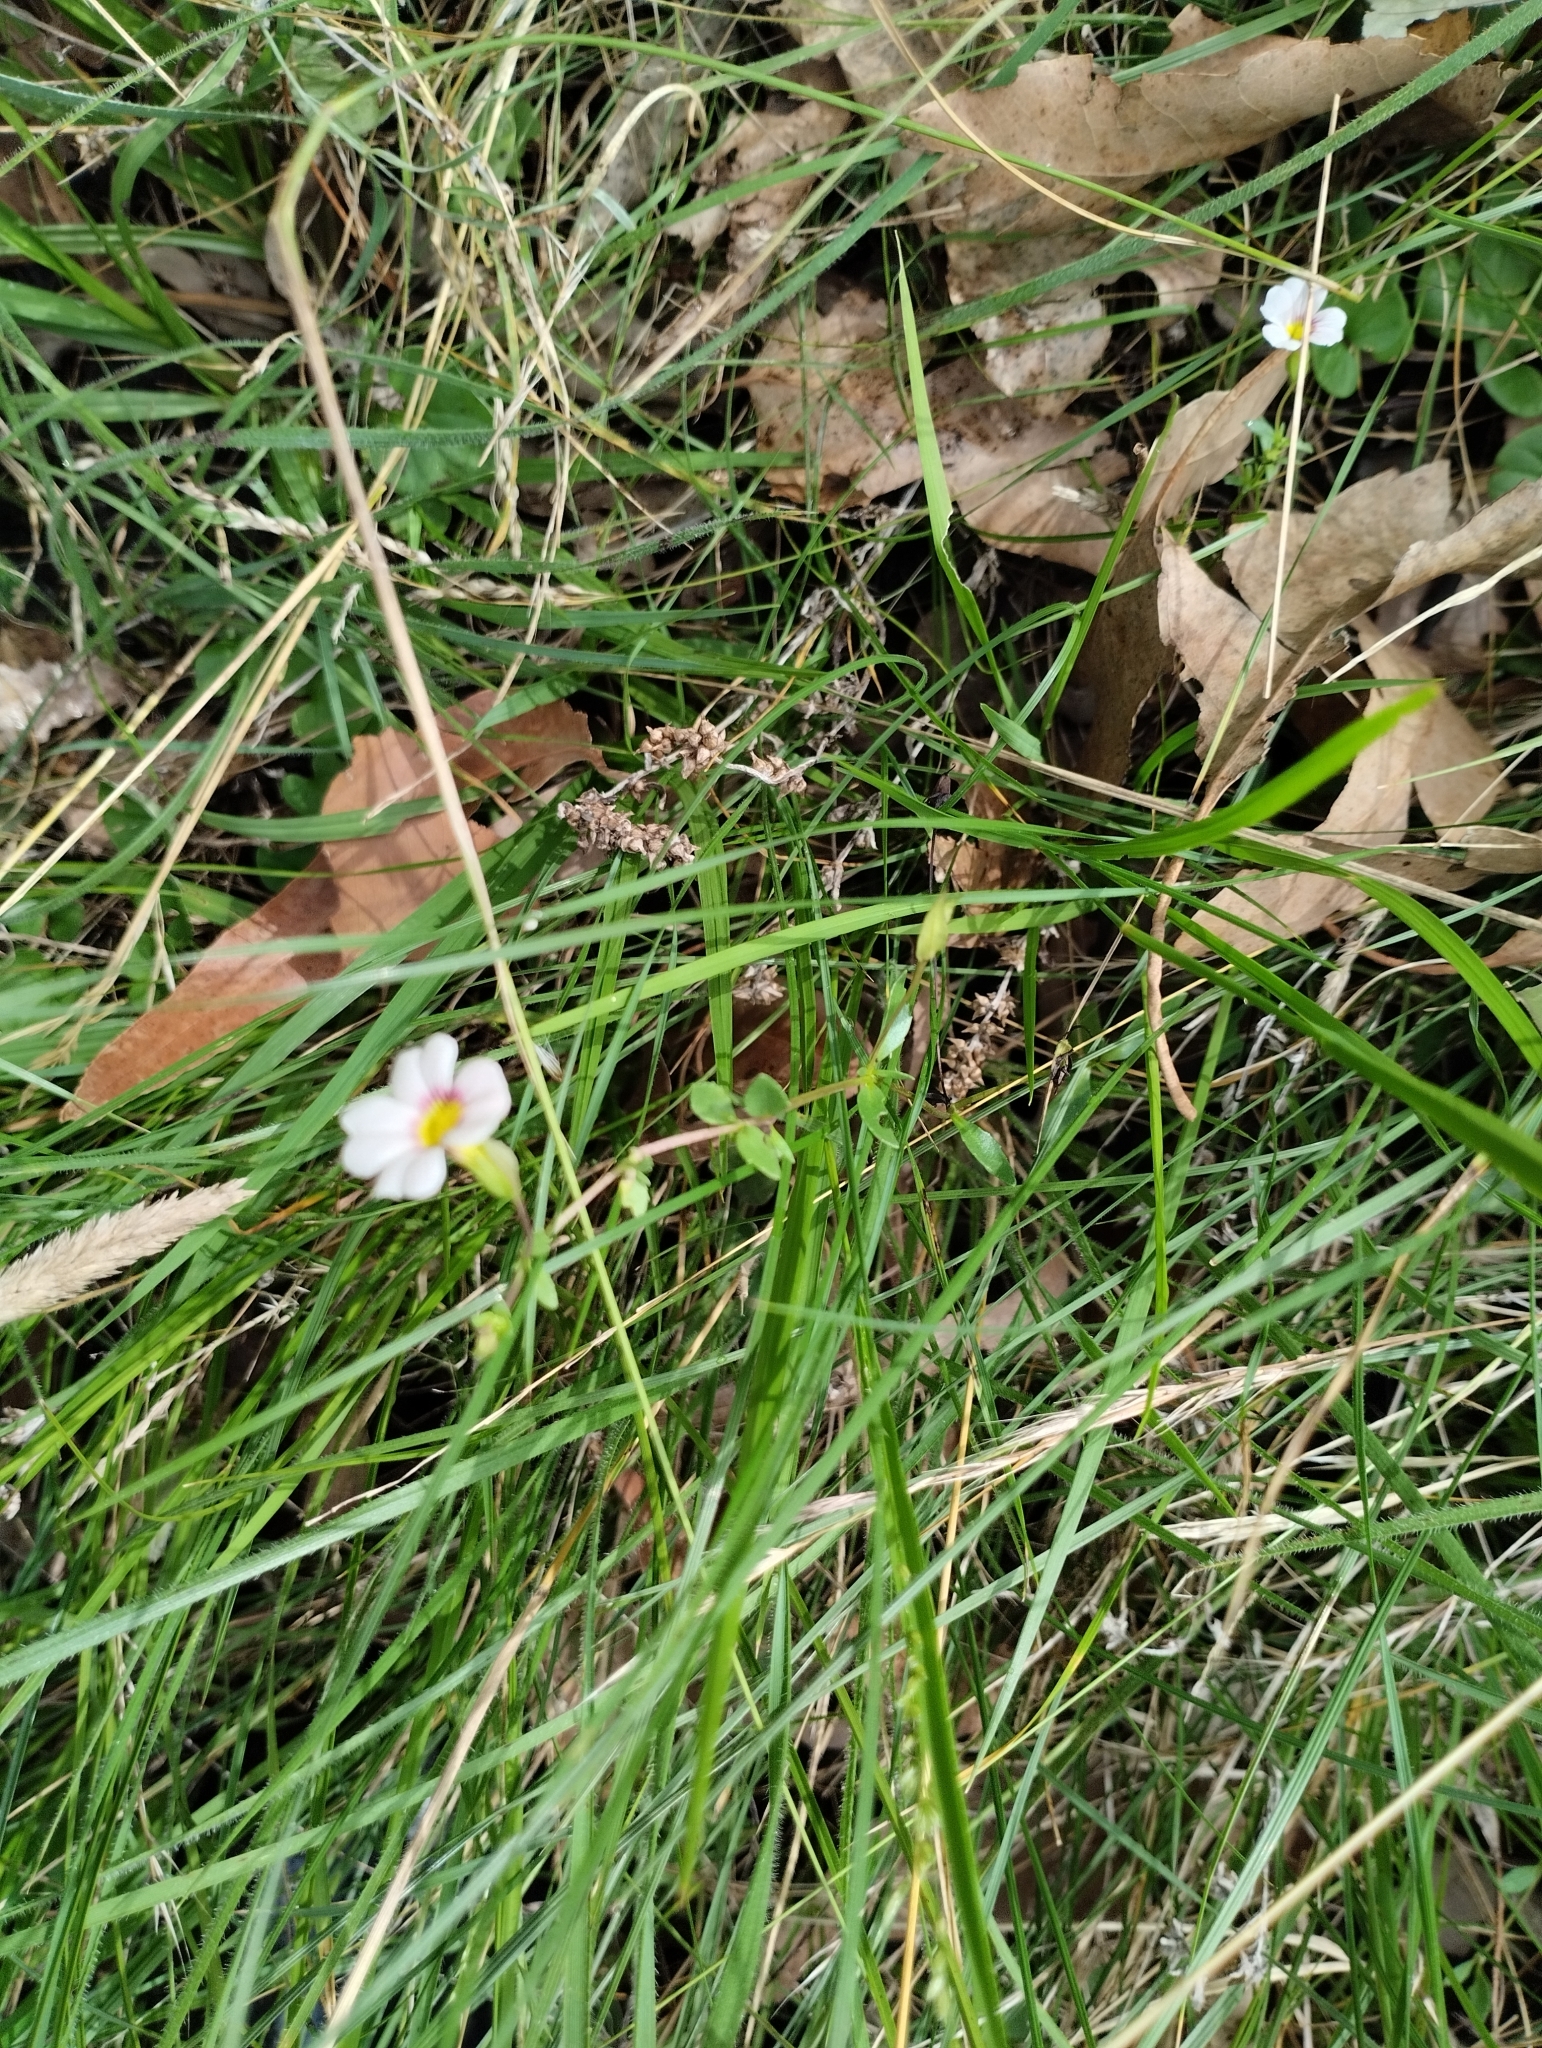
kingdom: Plantae
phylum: Tracheophyta
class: Magnoliopsida
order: Lamiales
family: Plantaginaceae
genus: Mecardonia
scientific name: Mecardonia procumbens
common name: Baby jump-up
